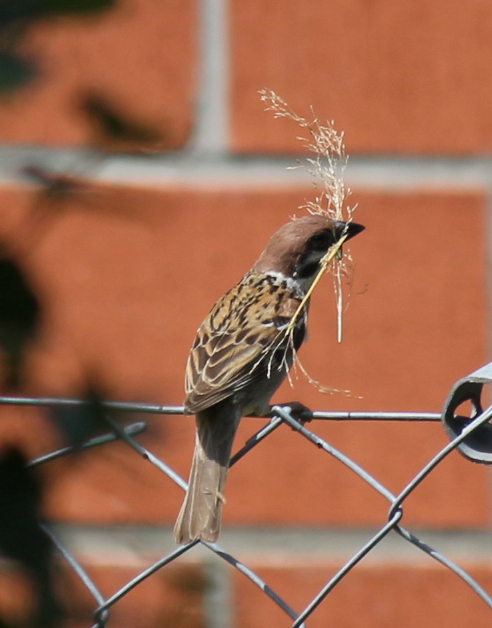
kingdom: Animalia
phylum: Chordata
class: Aves
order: Passeriformes
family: Passeridae
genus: Passer
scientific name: Passer montanus
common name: Eurasian tree sparrow
